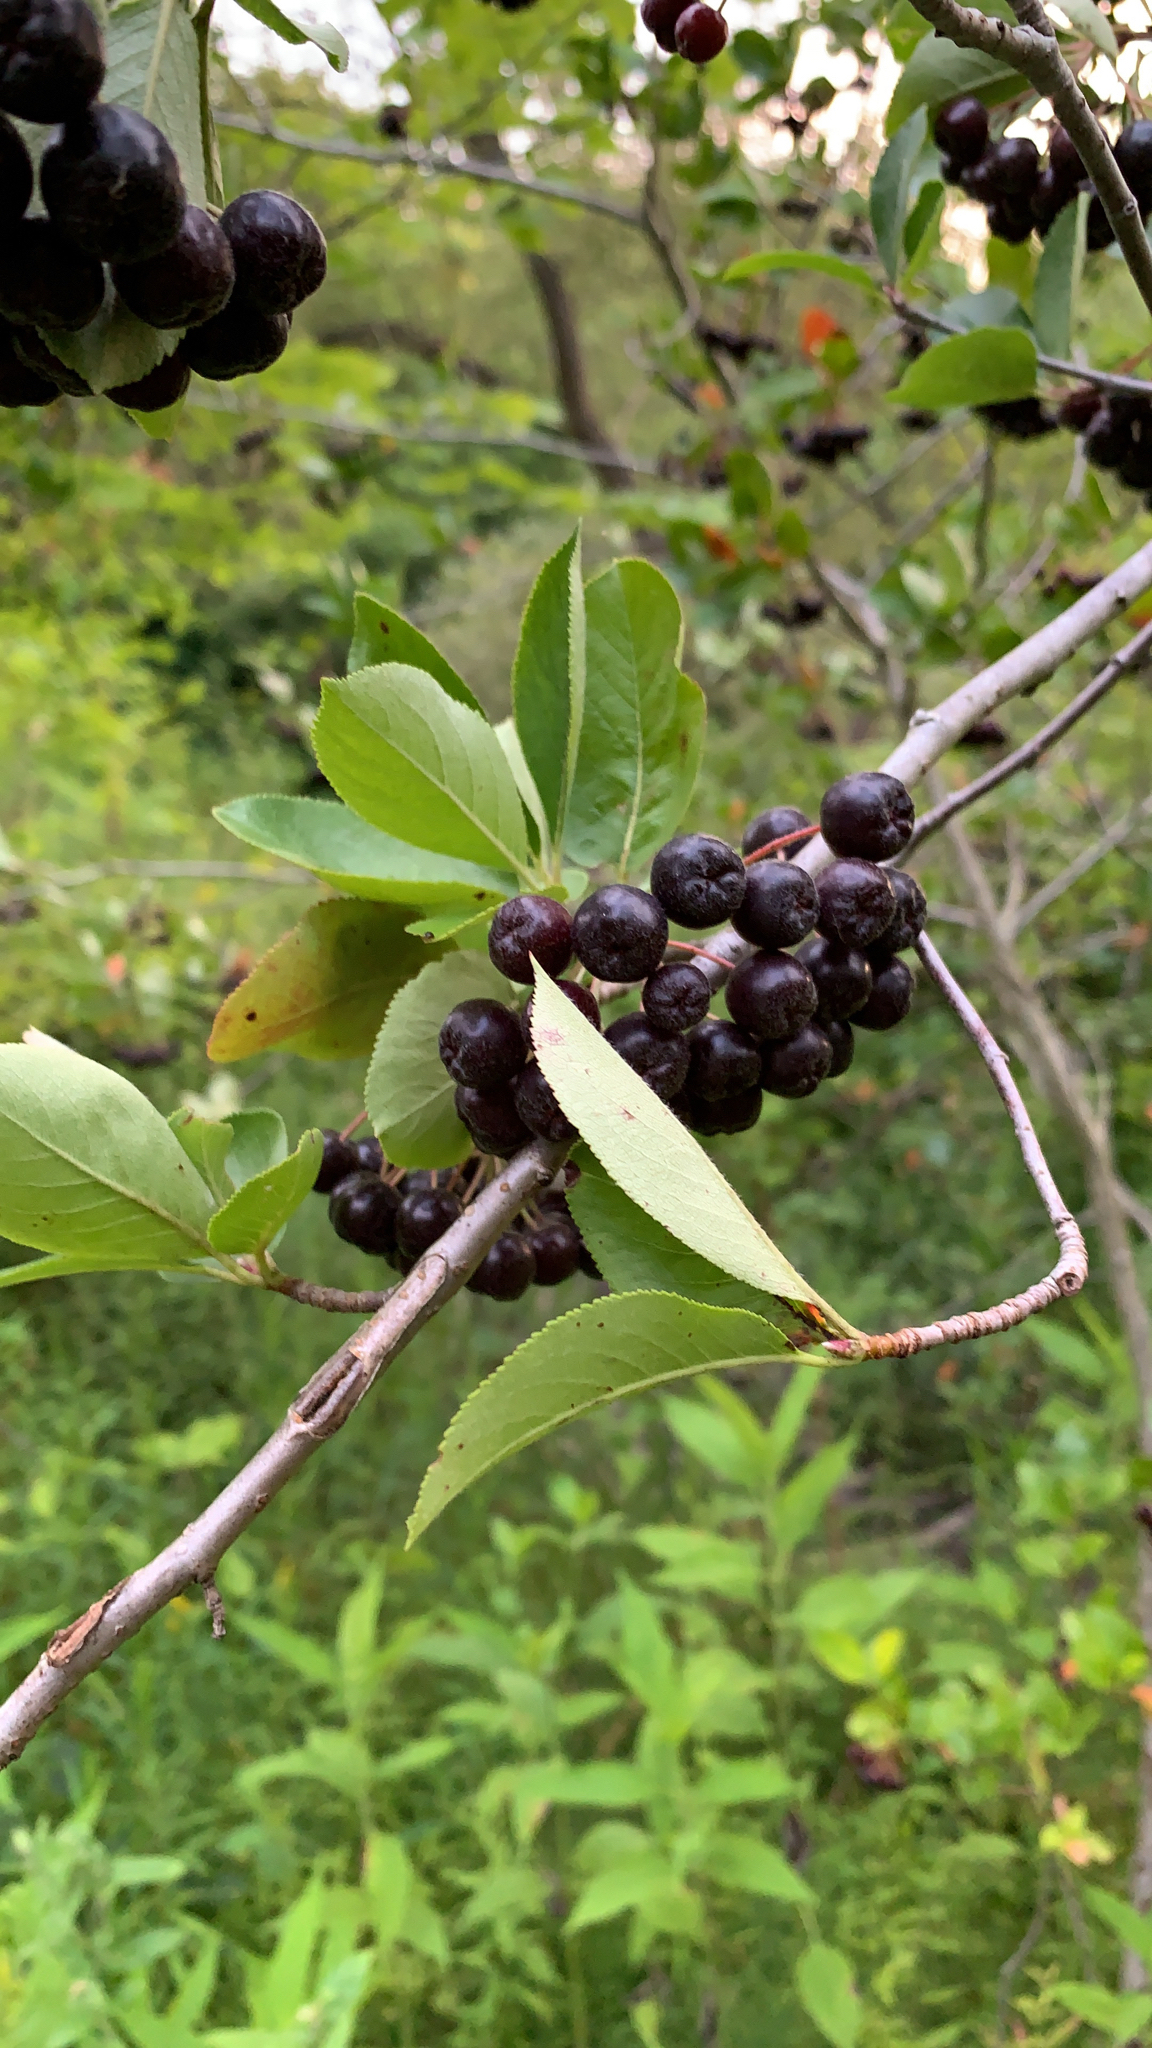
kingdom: Plantae
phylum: Tracheophyta
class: Magnoliopsida
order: Rosales
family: Rosaceae
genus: Aronia
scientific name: Aronia melanocarpa
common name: Black chokeberry
